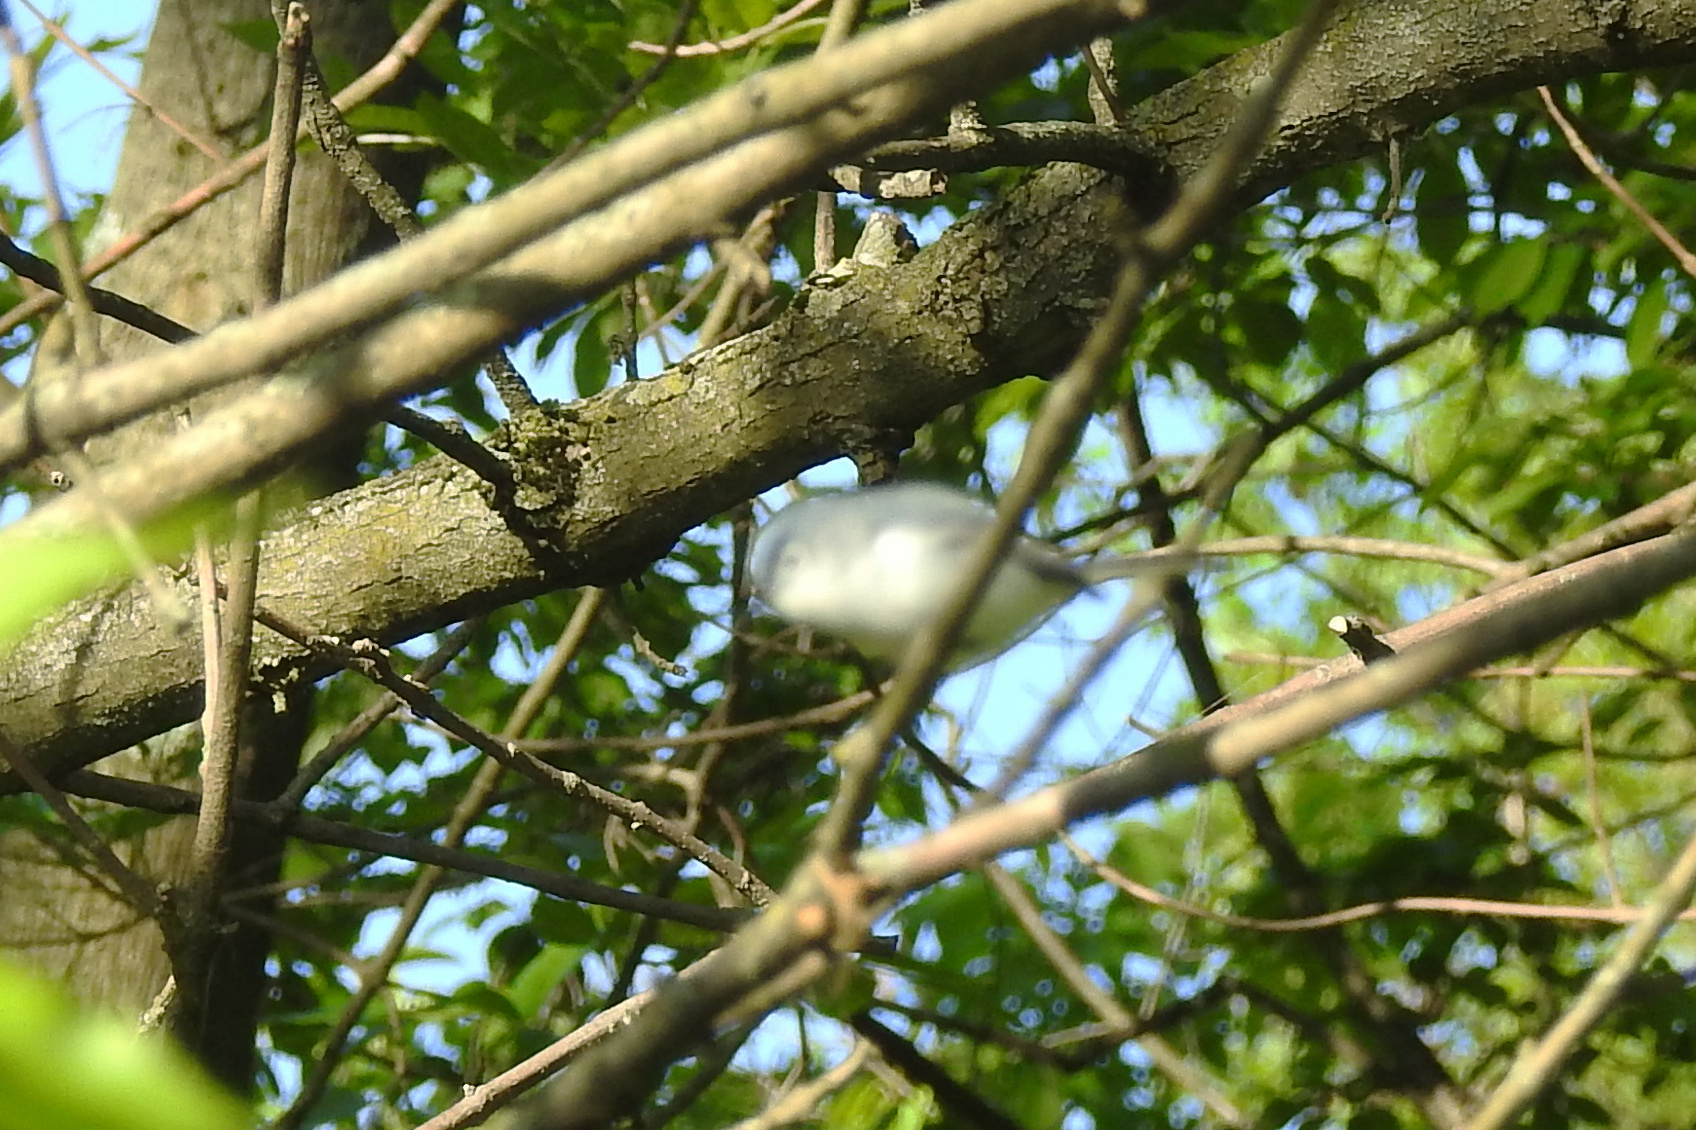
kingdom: Animalia
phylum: Chordata
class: Aves
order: Passeriformes
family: Polioptilidae
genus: Polioptila
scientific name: Polioptila caerulea
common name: Blue-gray gnatcatcher
